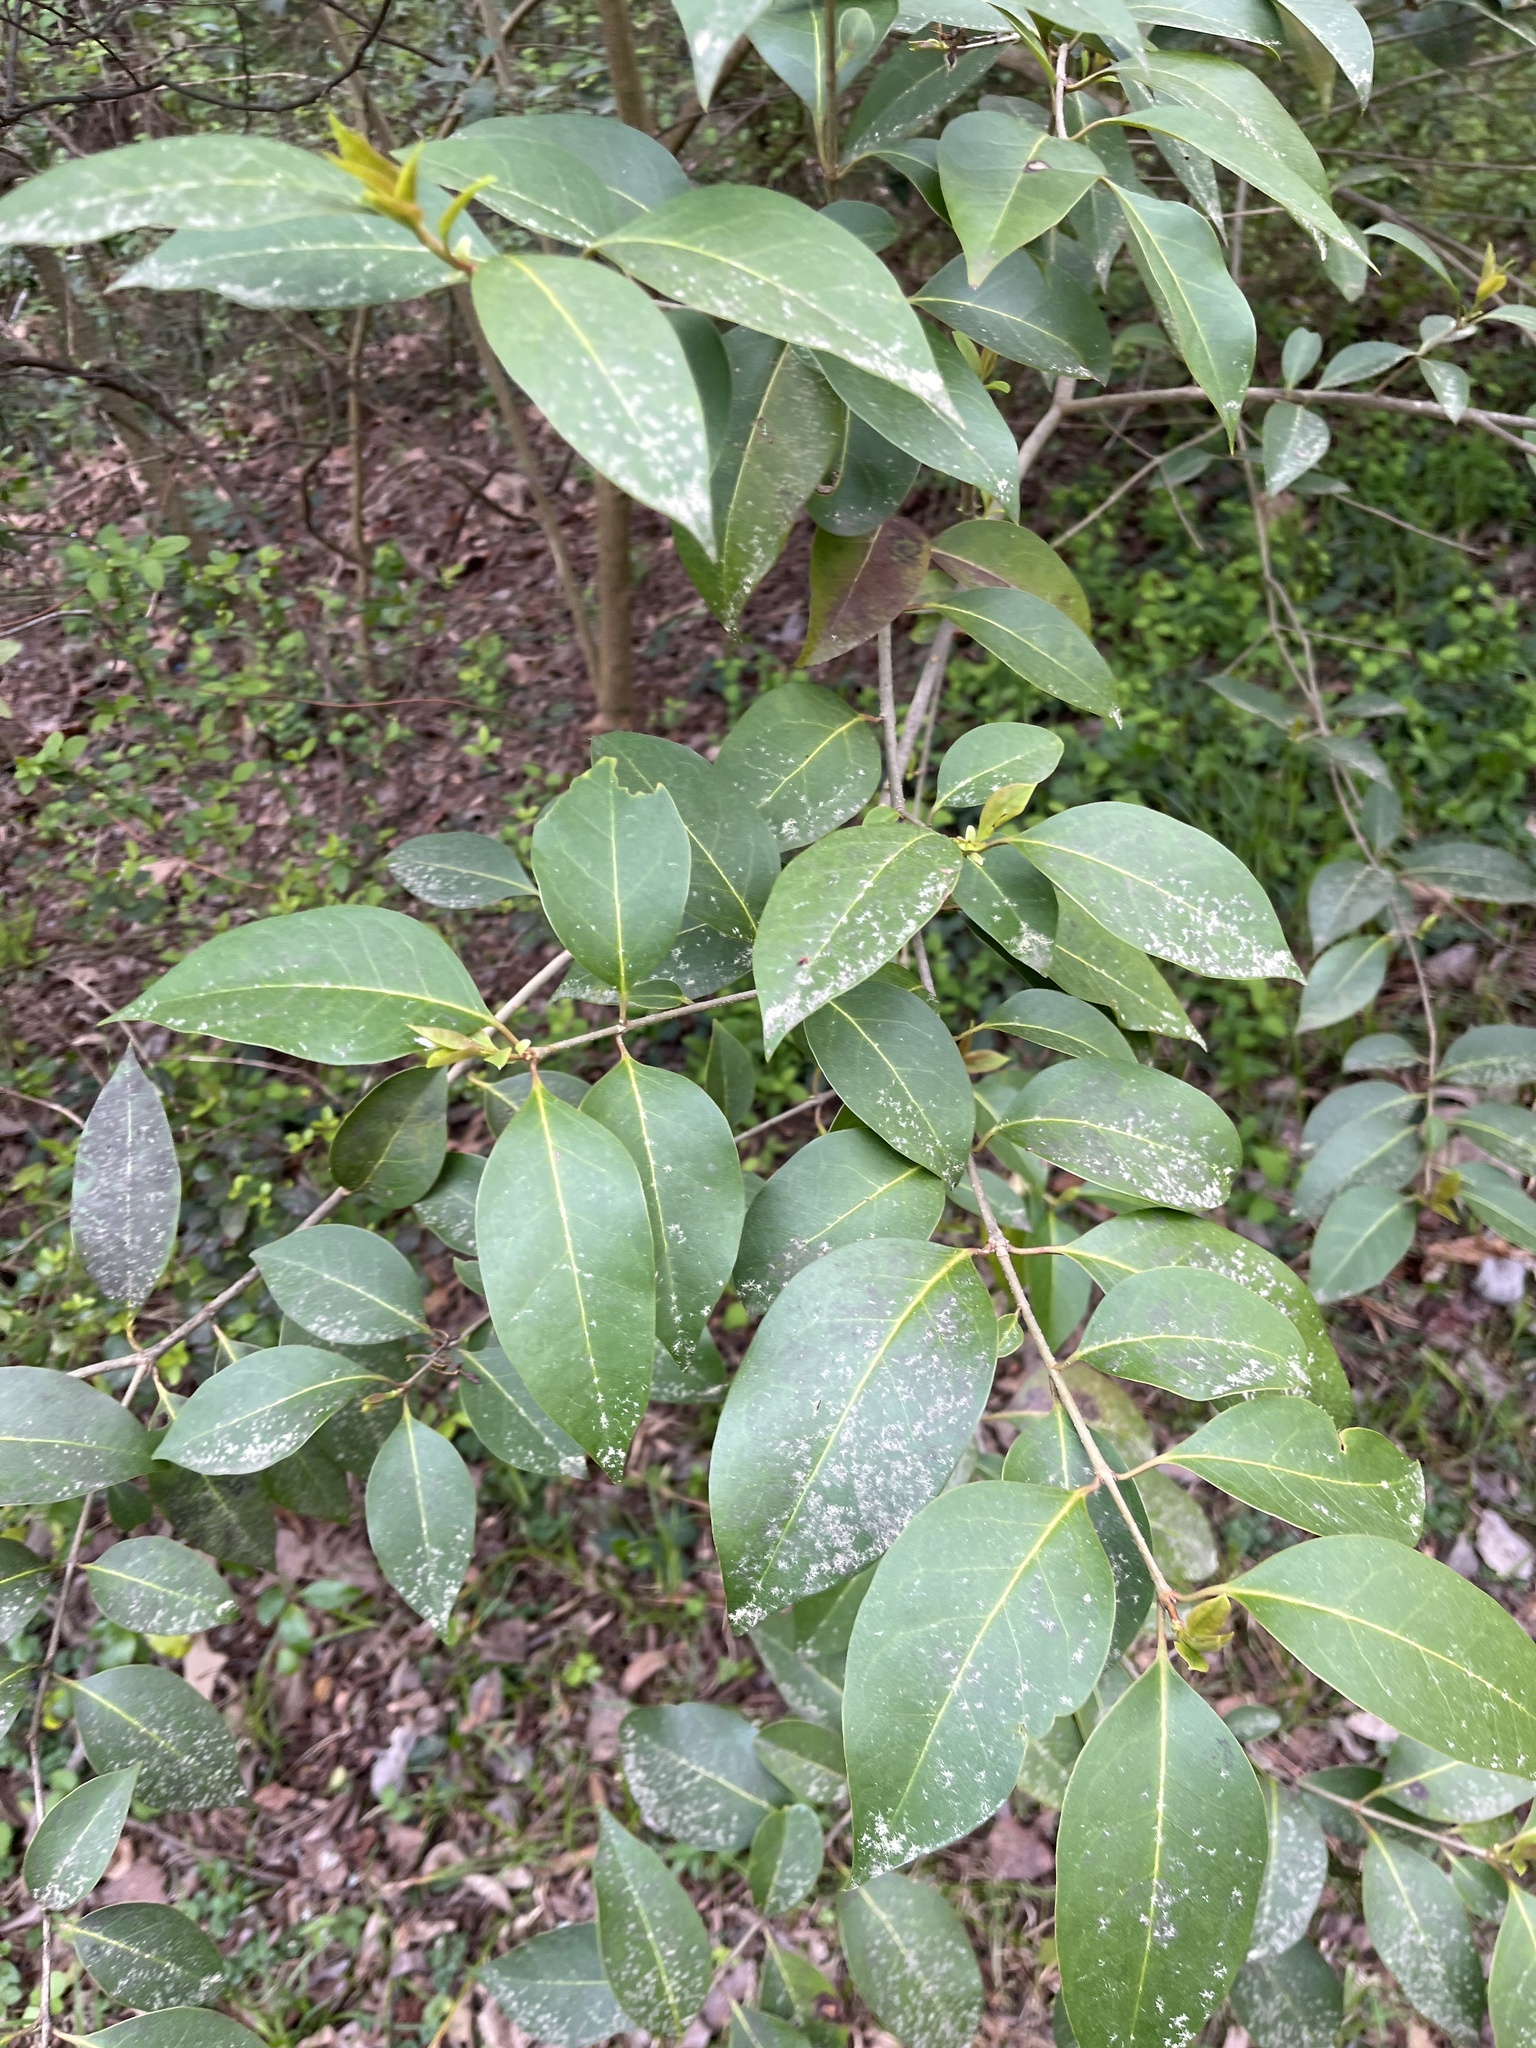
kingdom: Plantae
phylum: Tracheophyta
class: Magnoliopsida
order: Lamiales
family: Oleaceae
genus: Ligustrum
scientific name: Ligustrum lucidum
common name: Glossy privet
